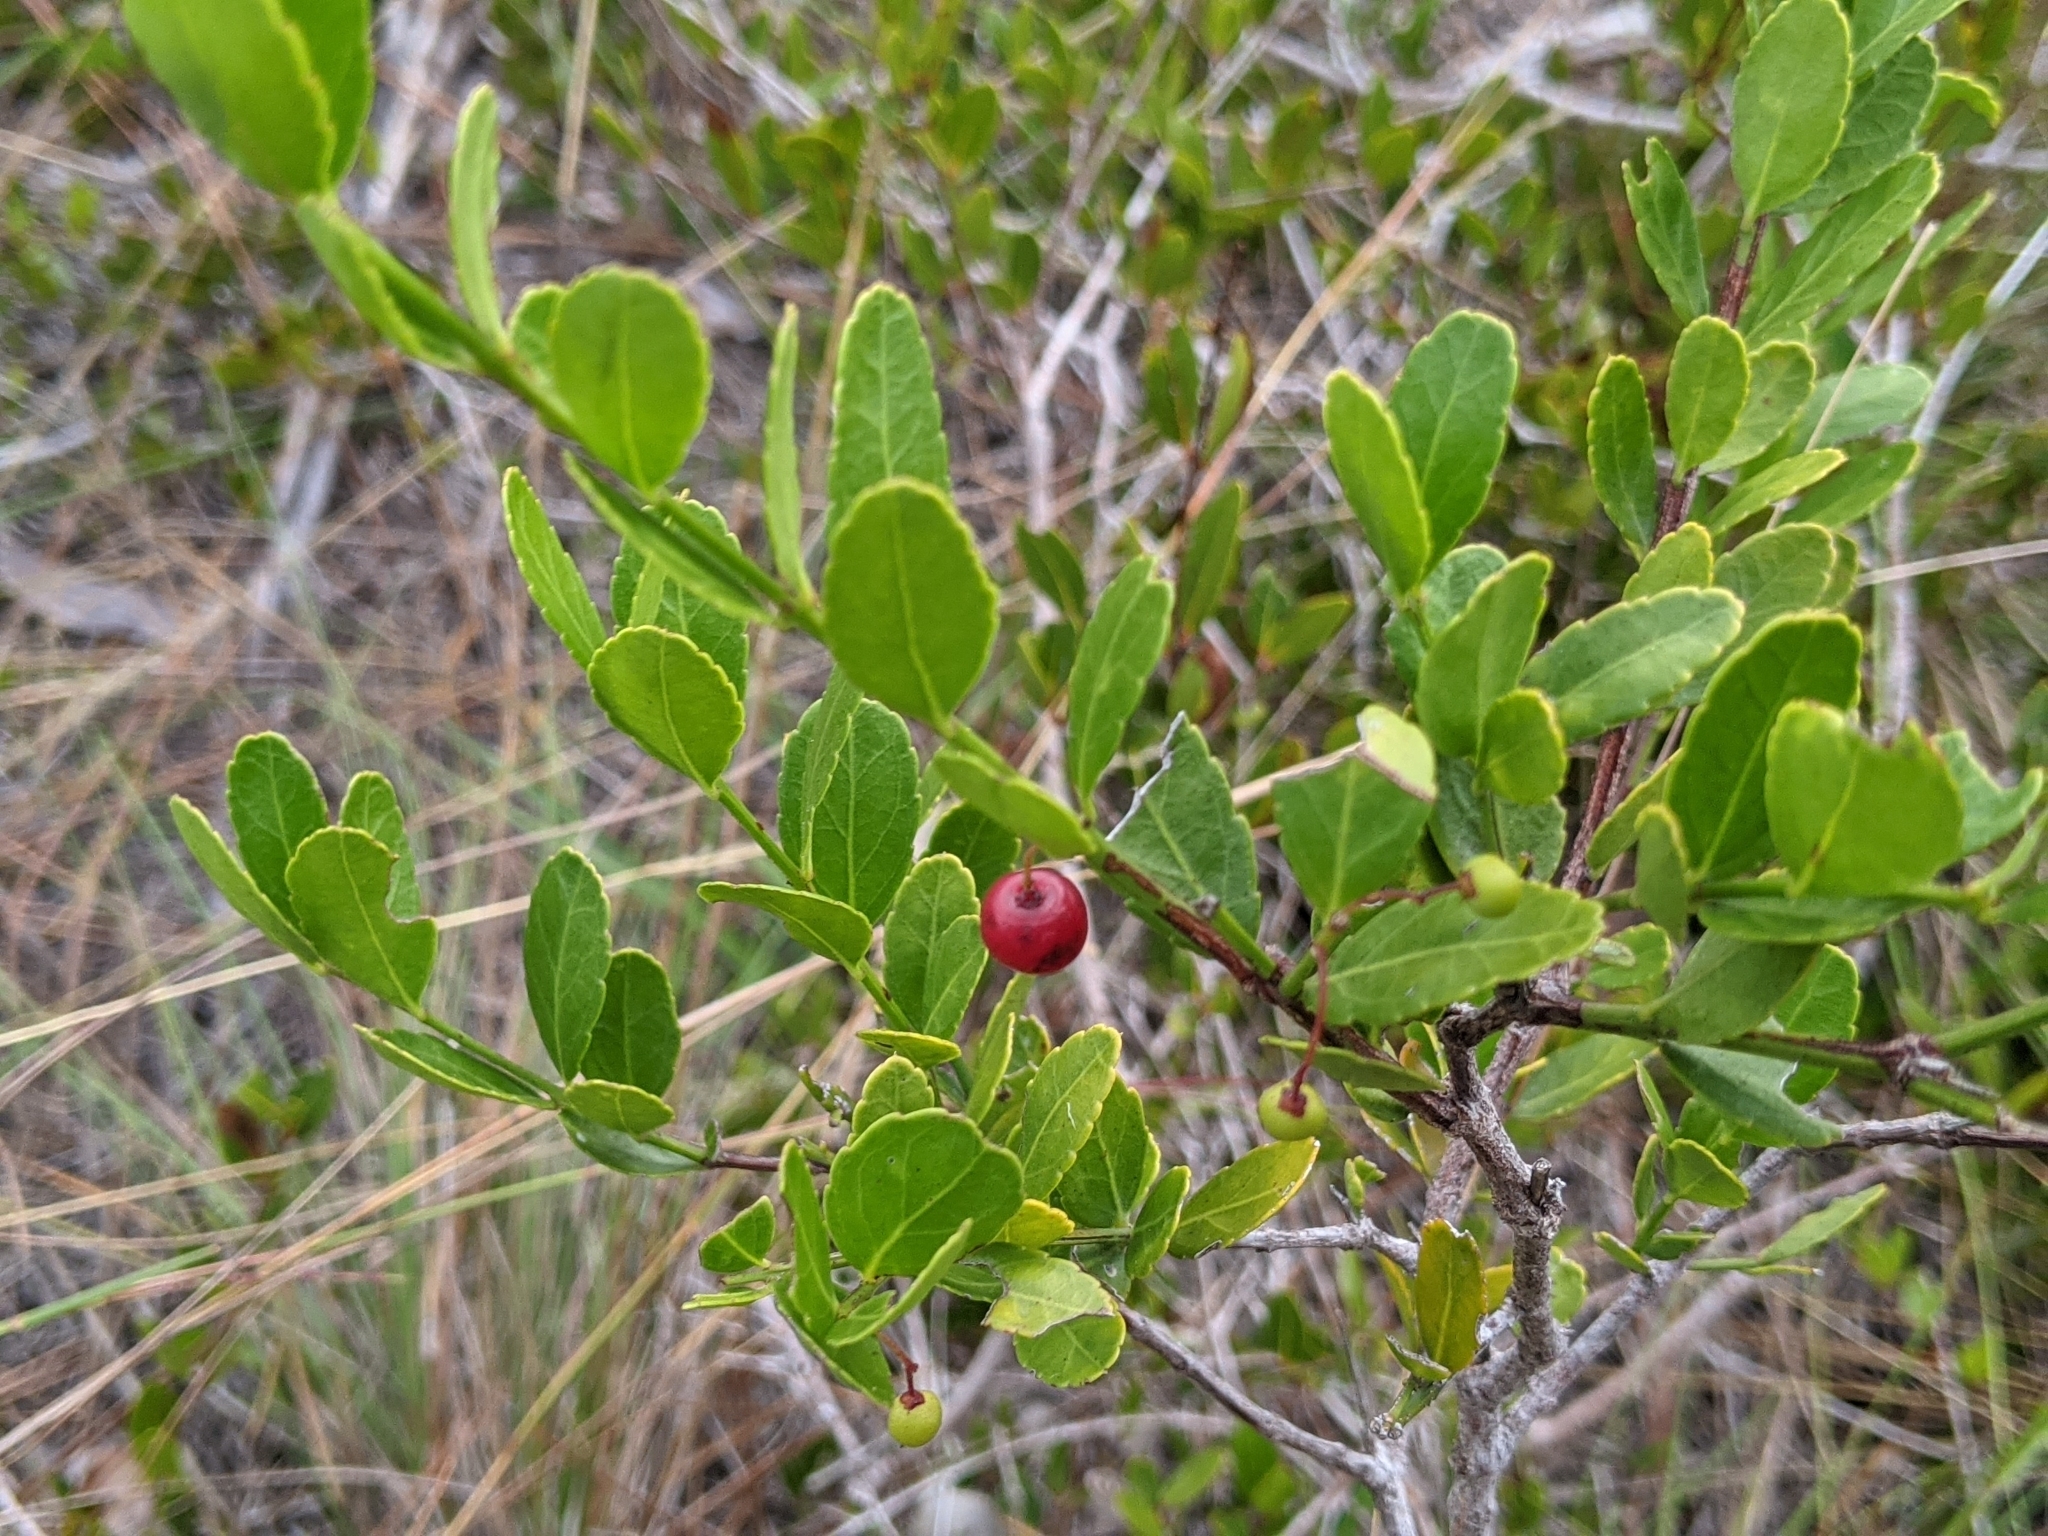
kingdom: Plantae
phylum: Tracheophyta
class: Magnoliopsida
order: Celastrales
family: Celastraceae
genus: Crossopetalum
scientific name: Crossopetalum rhacoma
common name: Maidenberry
